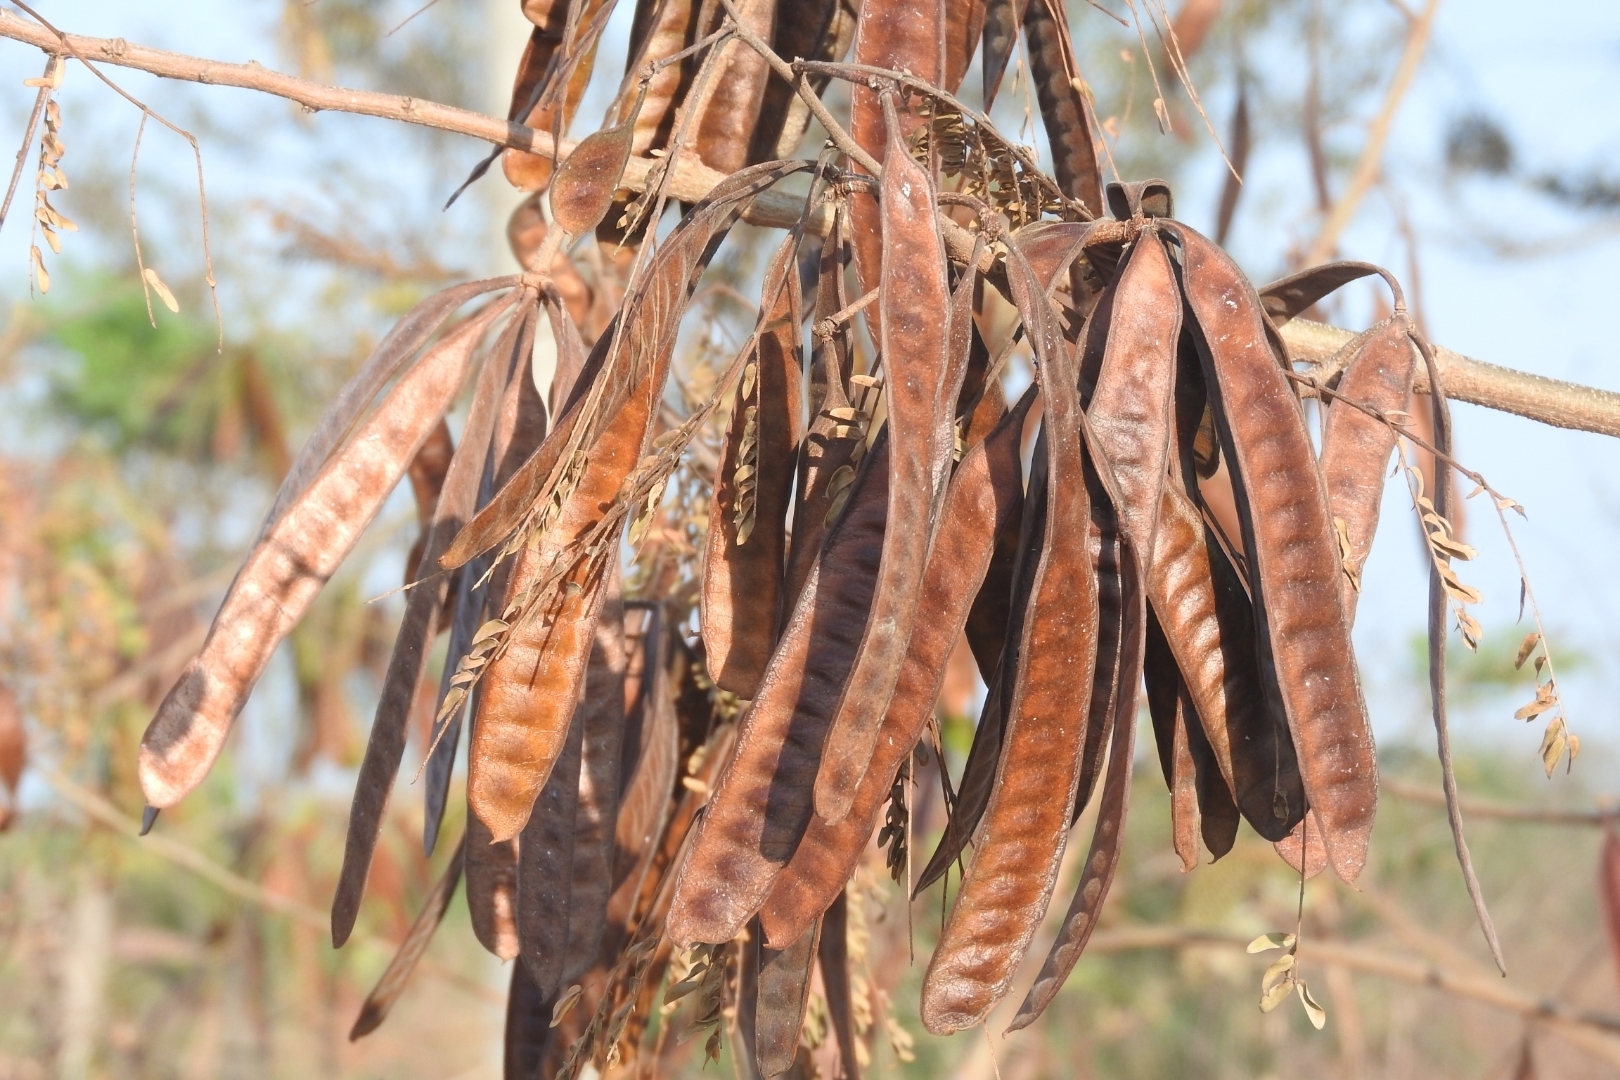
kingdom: Plantae
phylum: Tracheophyta
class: Magnoliopsida
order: Fabales
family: Fabaceae
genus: Leucaena
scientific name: Leucaena leucocephala
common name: White leadtree
